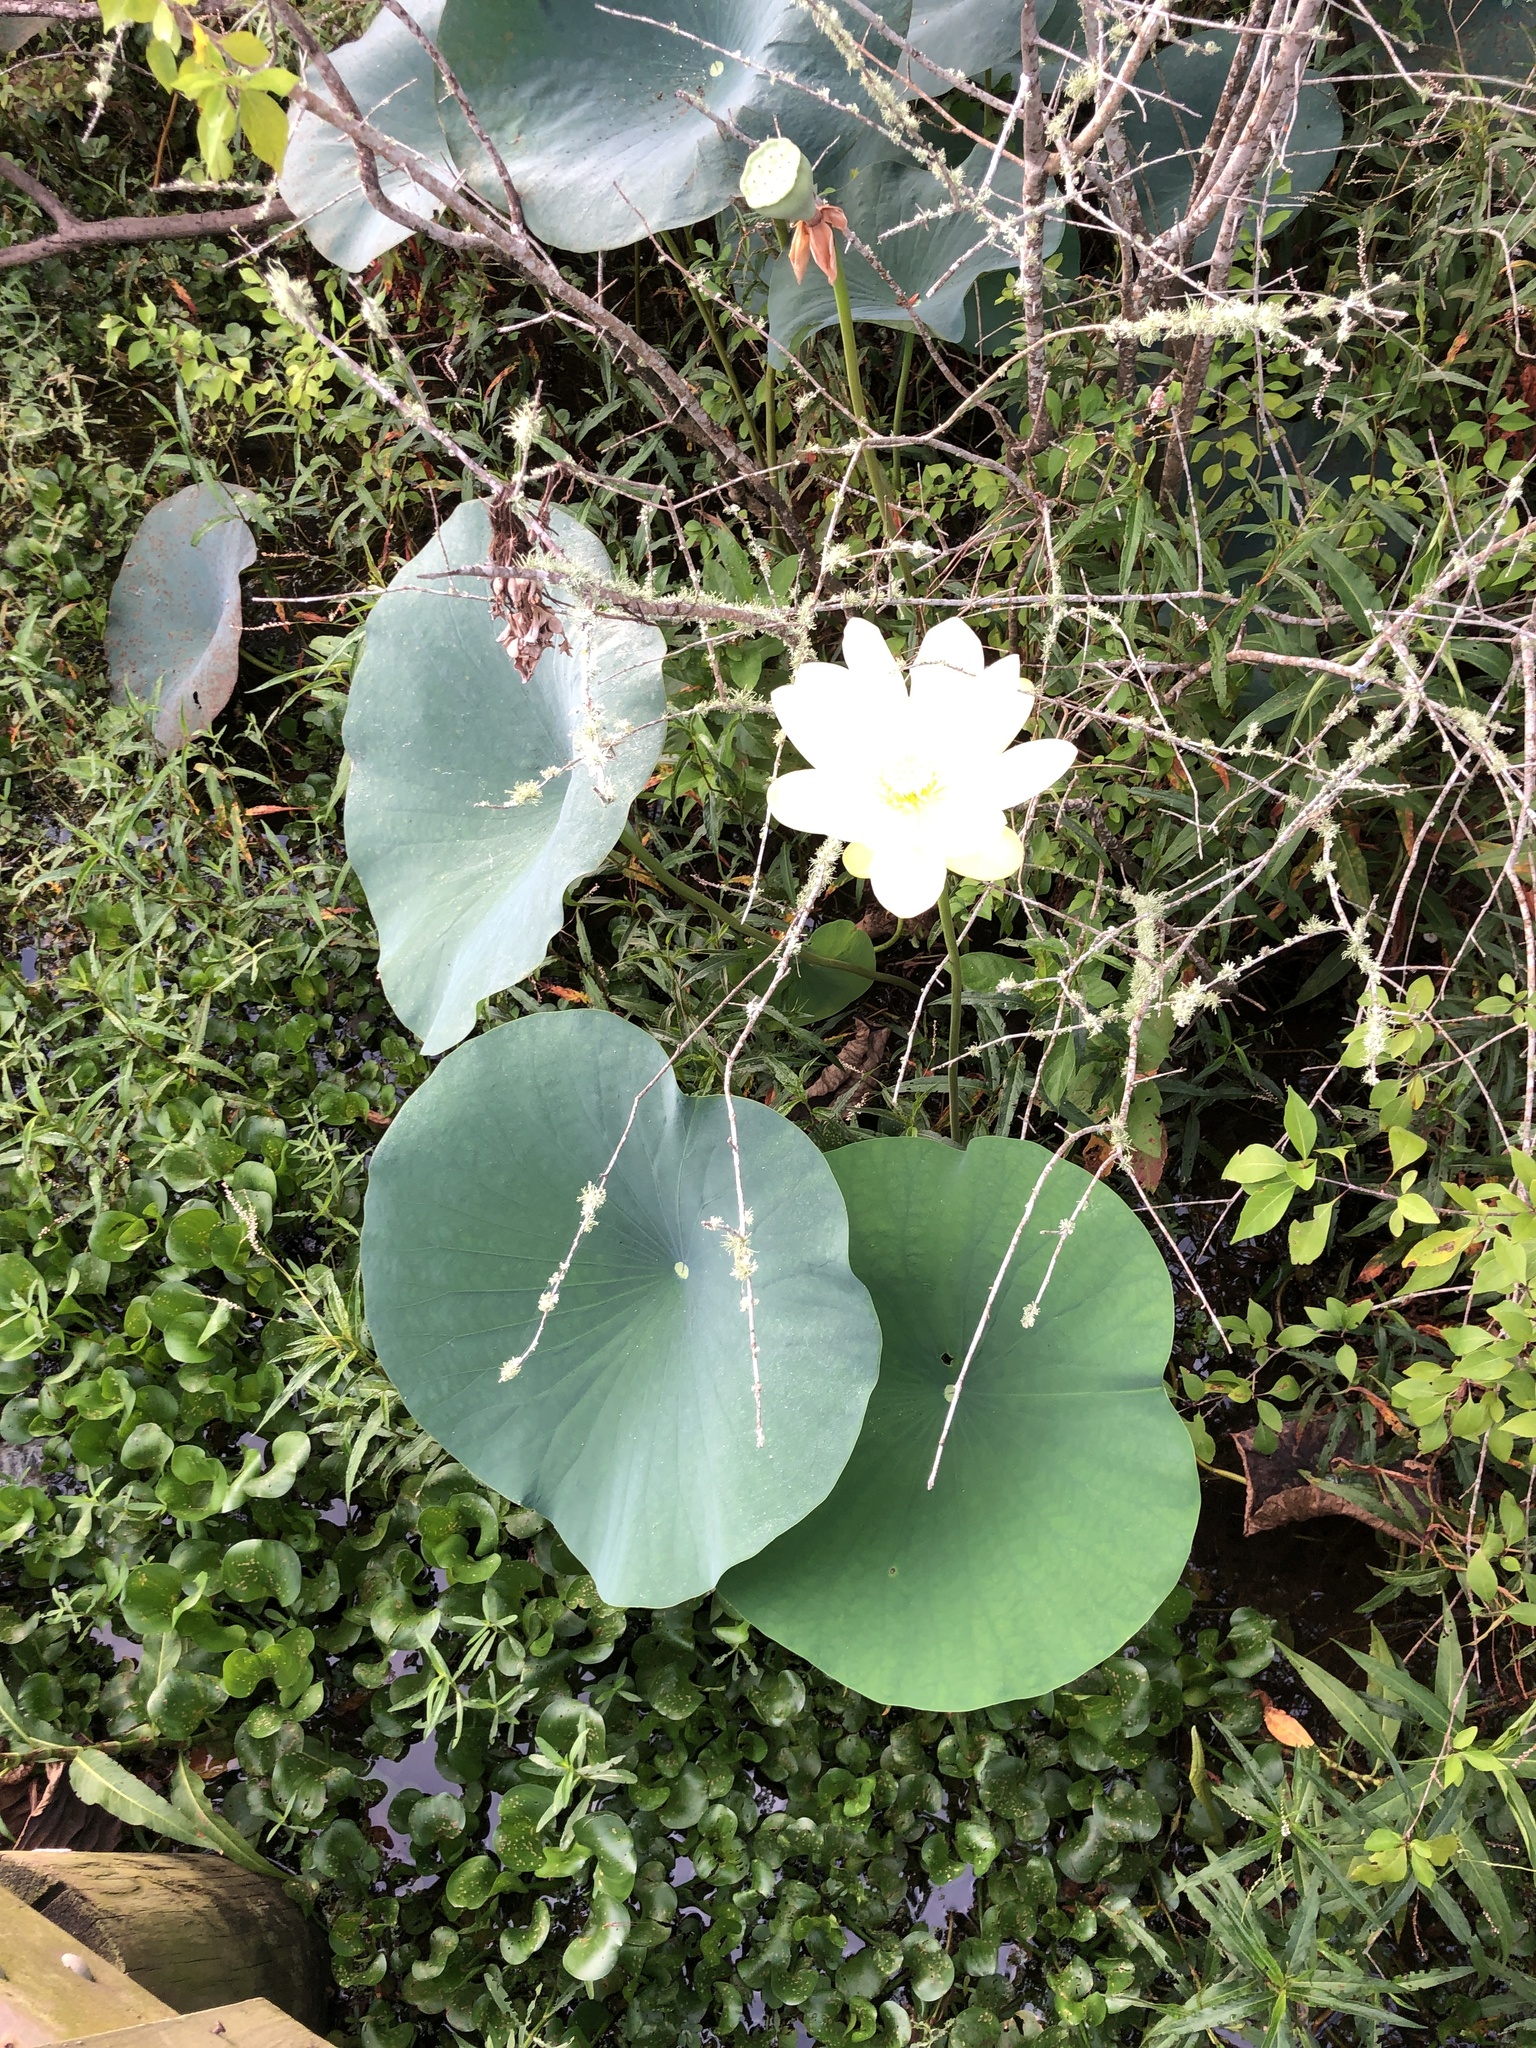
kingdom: Plantae
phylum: Tracheophyta
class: Magnoliopsida
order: Proteales
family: Nelumbonaceae
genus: Nelumbo
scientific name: Nelumbo lutea
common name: American lotus
